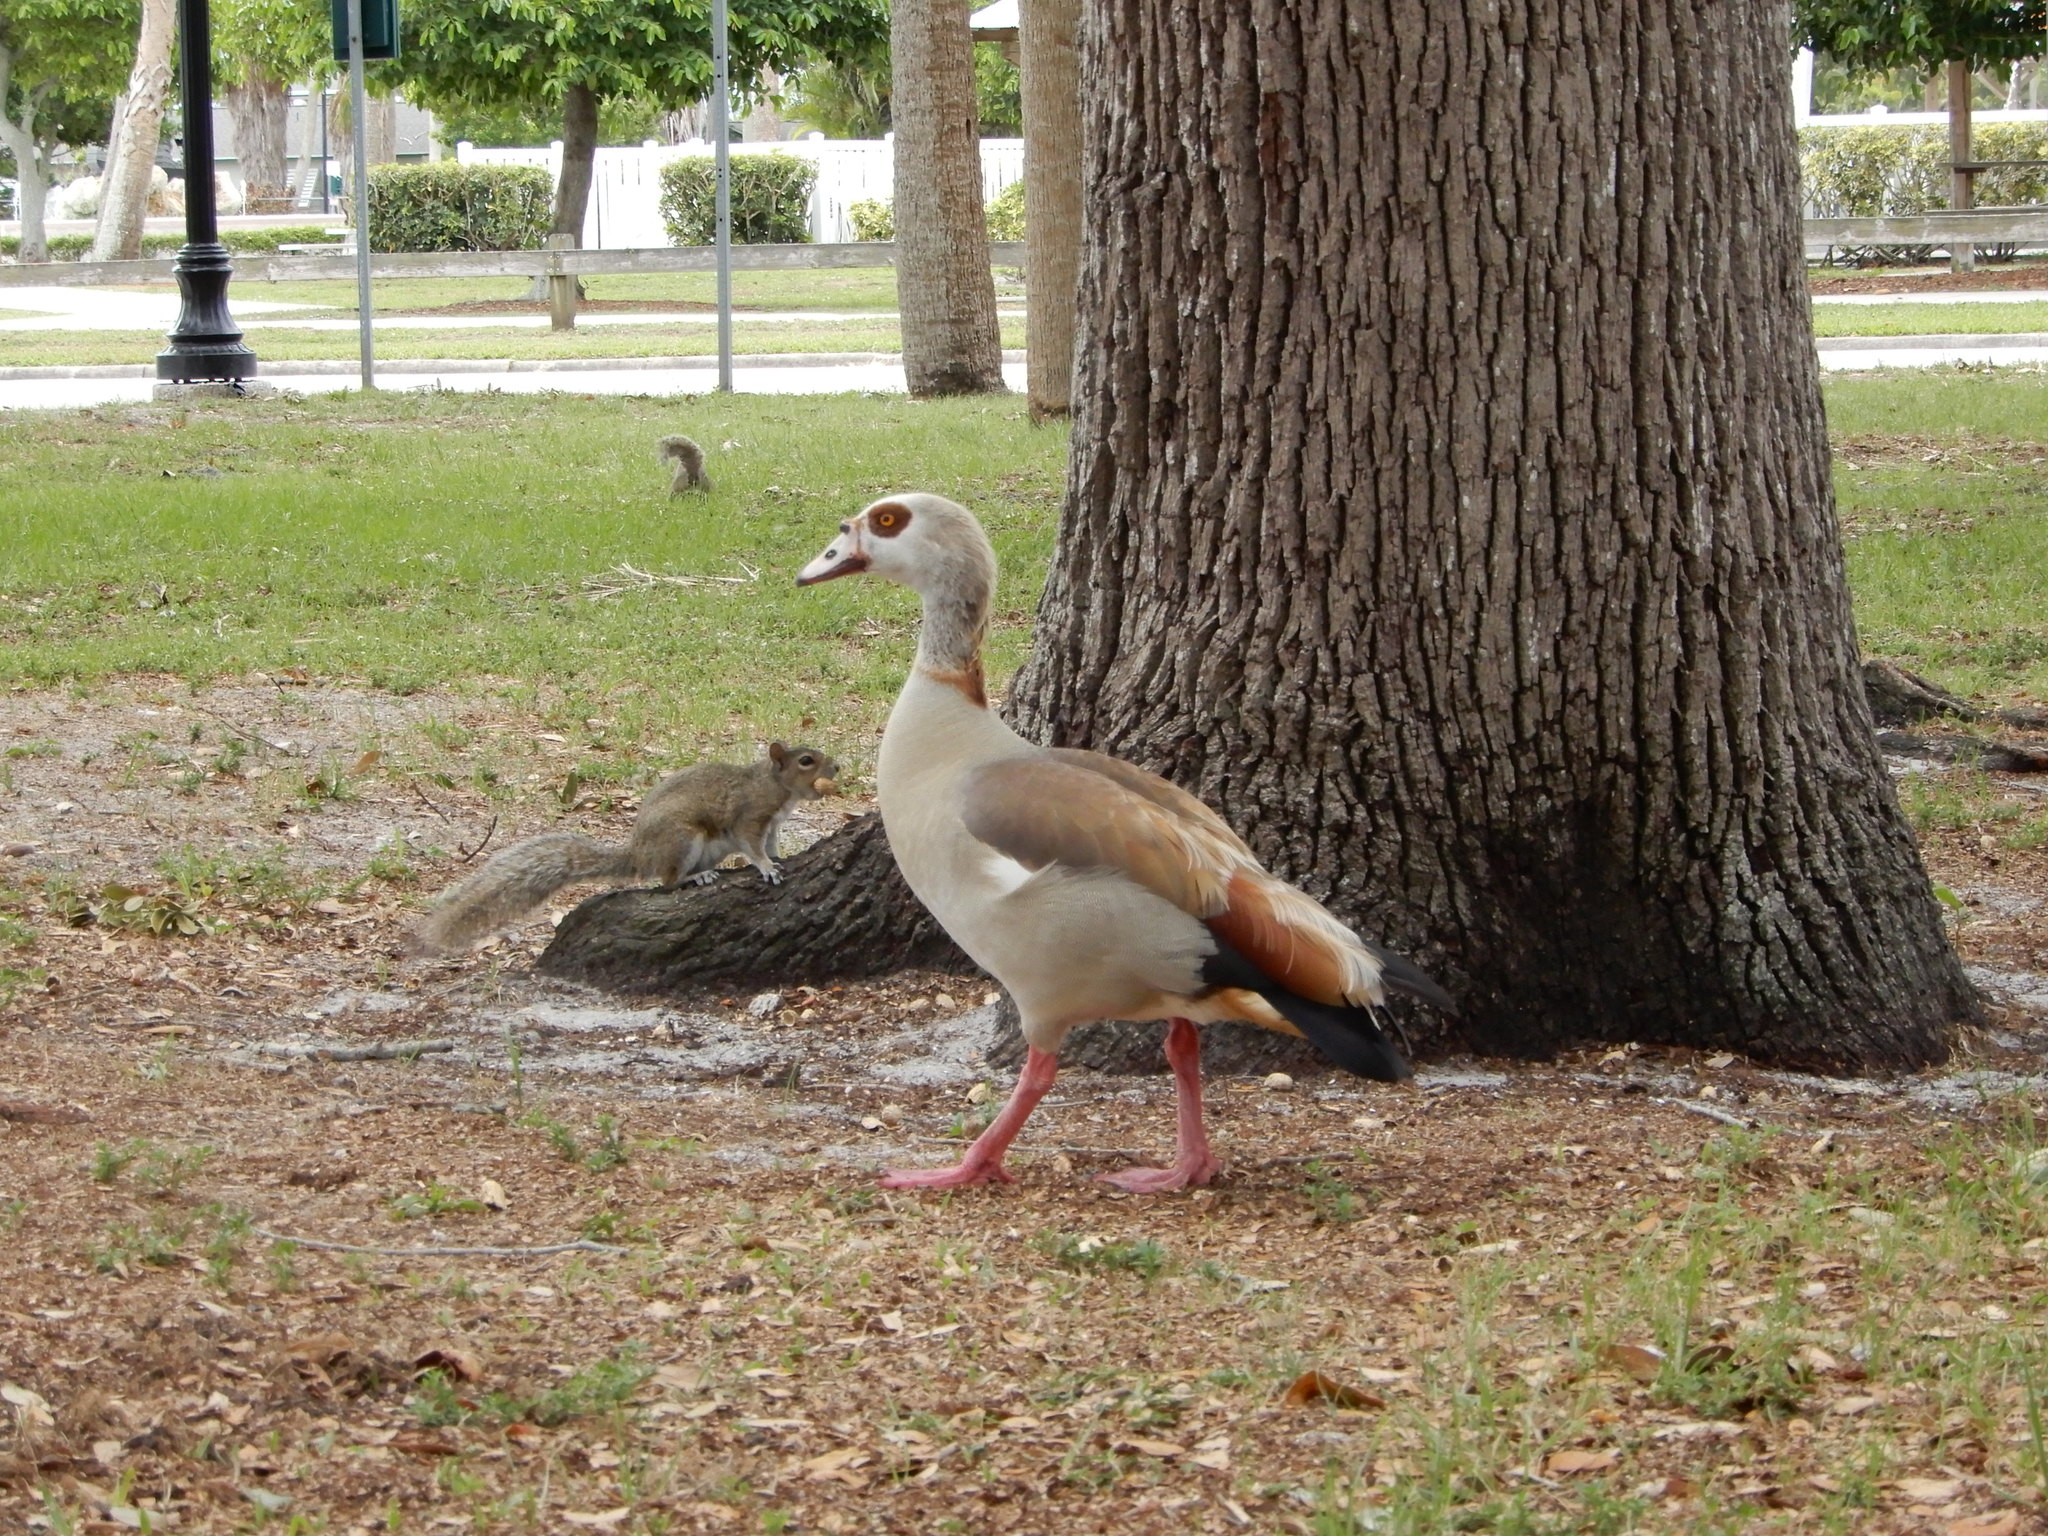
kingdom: Animalia
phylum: Chordata
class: Aves
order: Anseriformes
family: Anatidae
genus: Alopochen
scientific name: Alopochen aegyptiaca
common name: Egyptian goose
